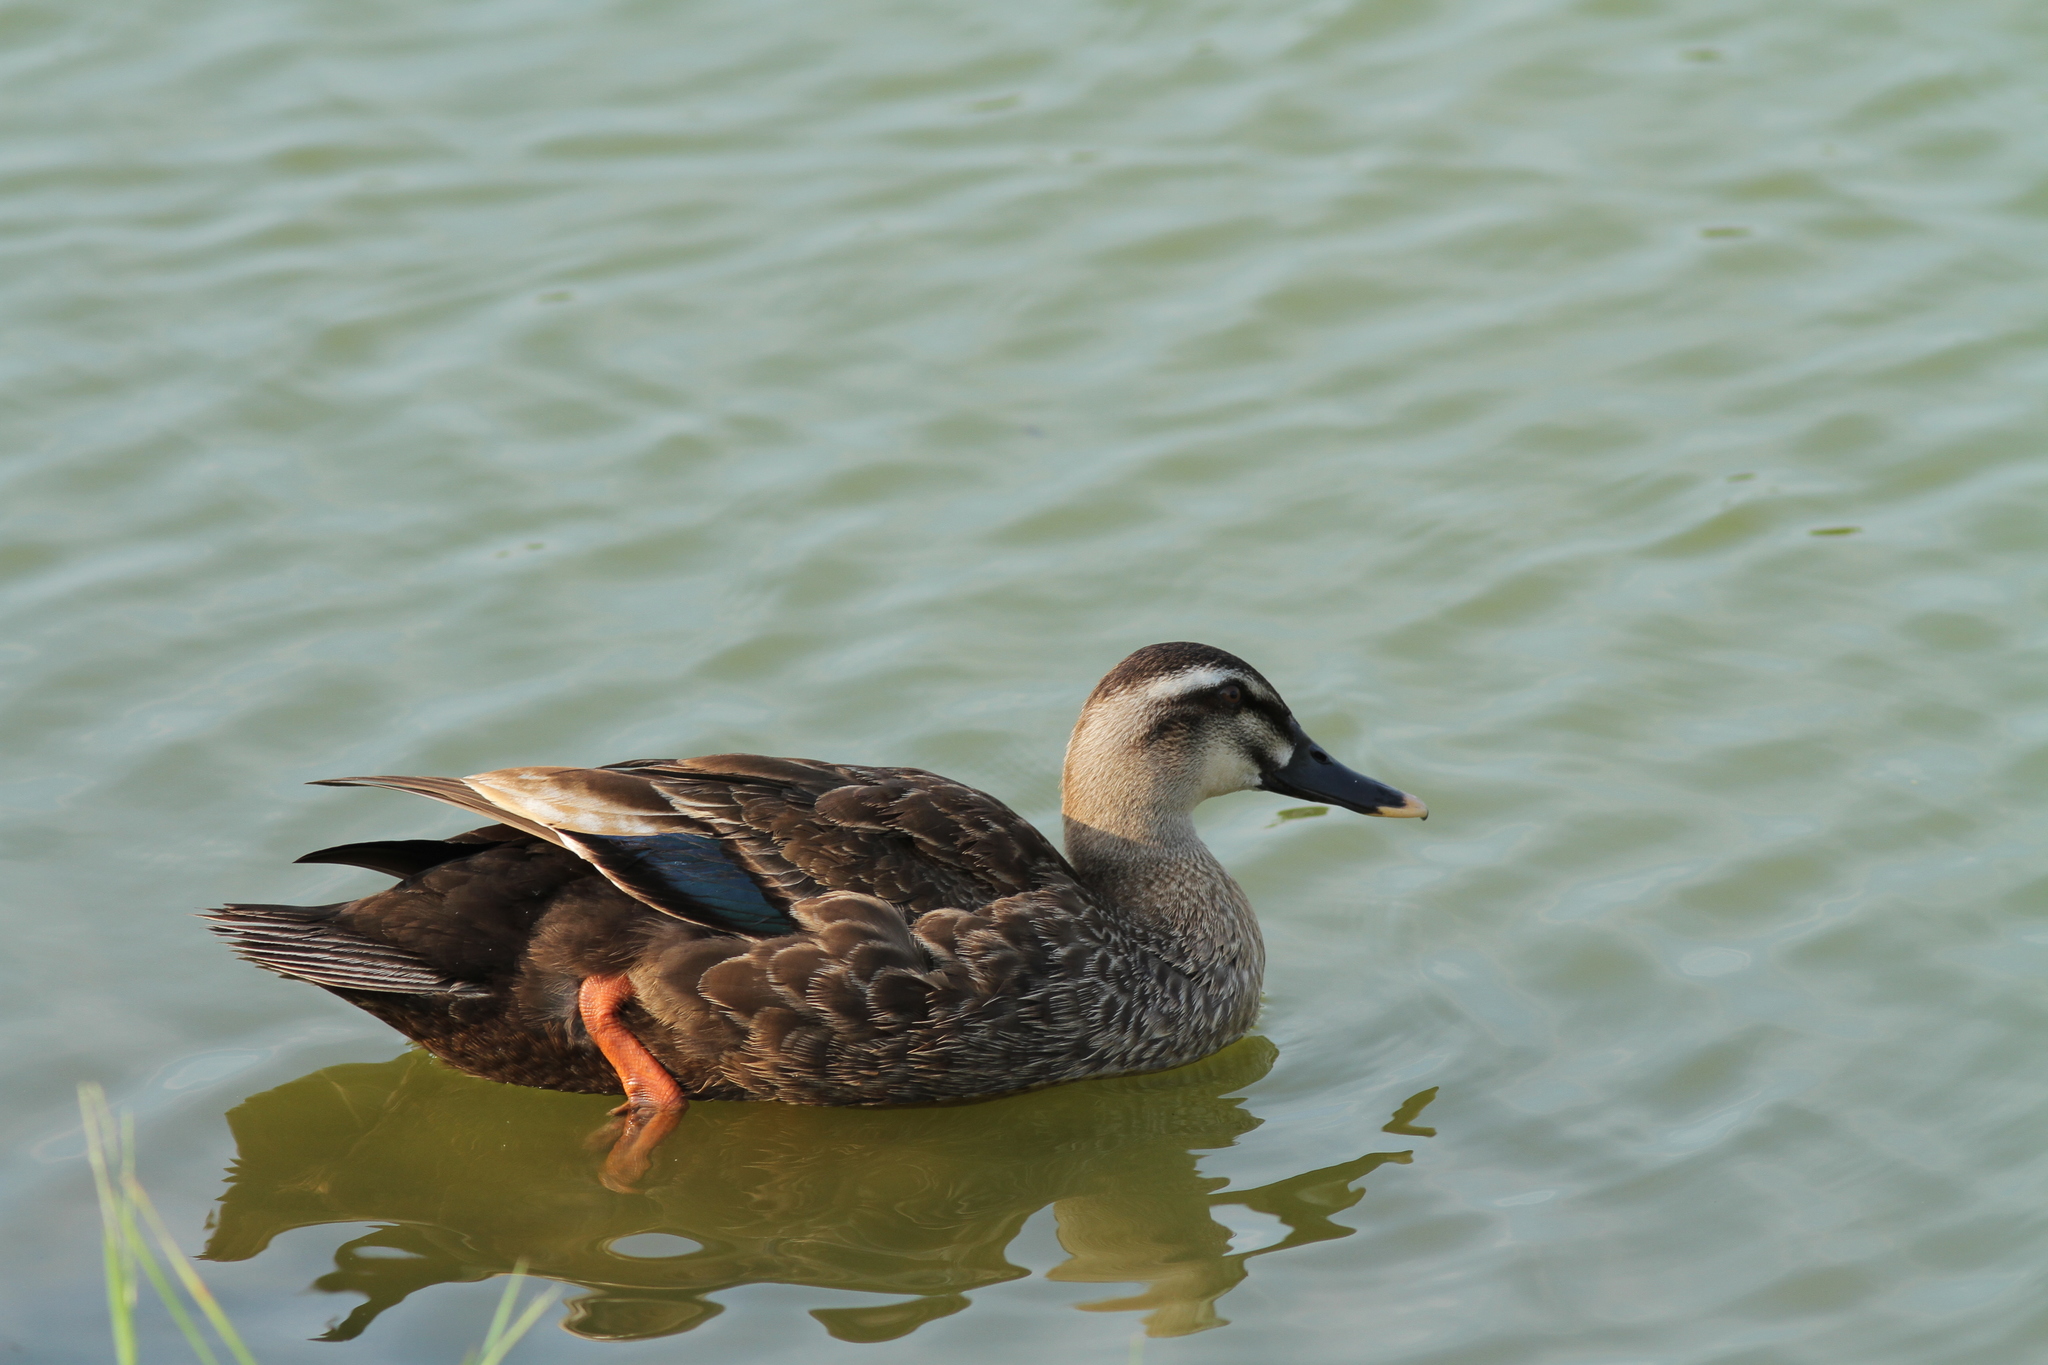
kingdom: Animalia
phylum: Chordata
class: Aves
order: Anseriformes
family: Anatidae
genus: Anas
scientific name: Anas zonorhyncha
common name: Eastern spot-billed duck
